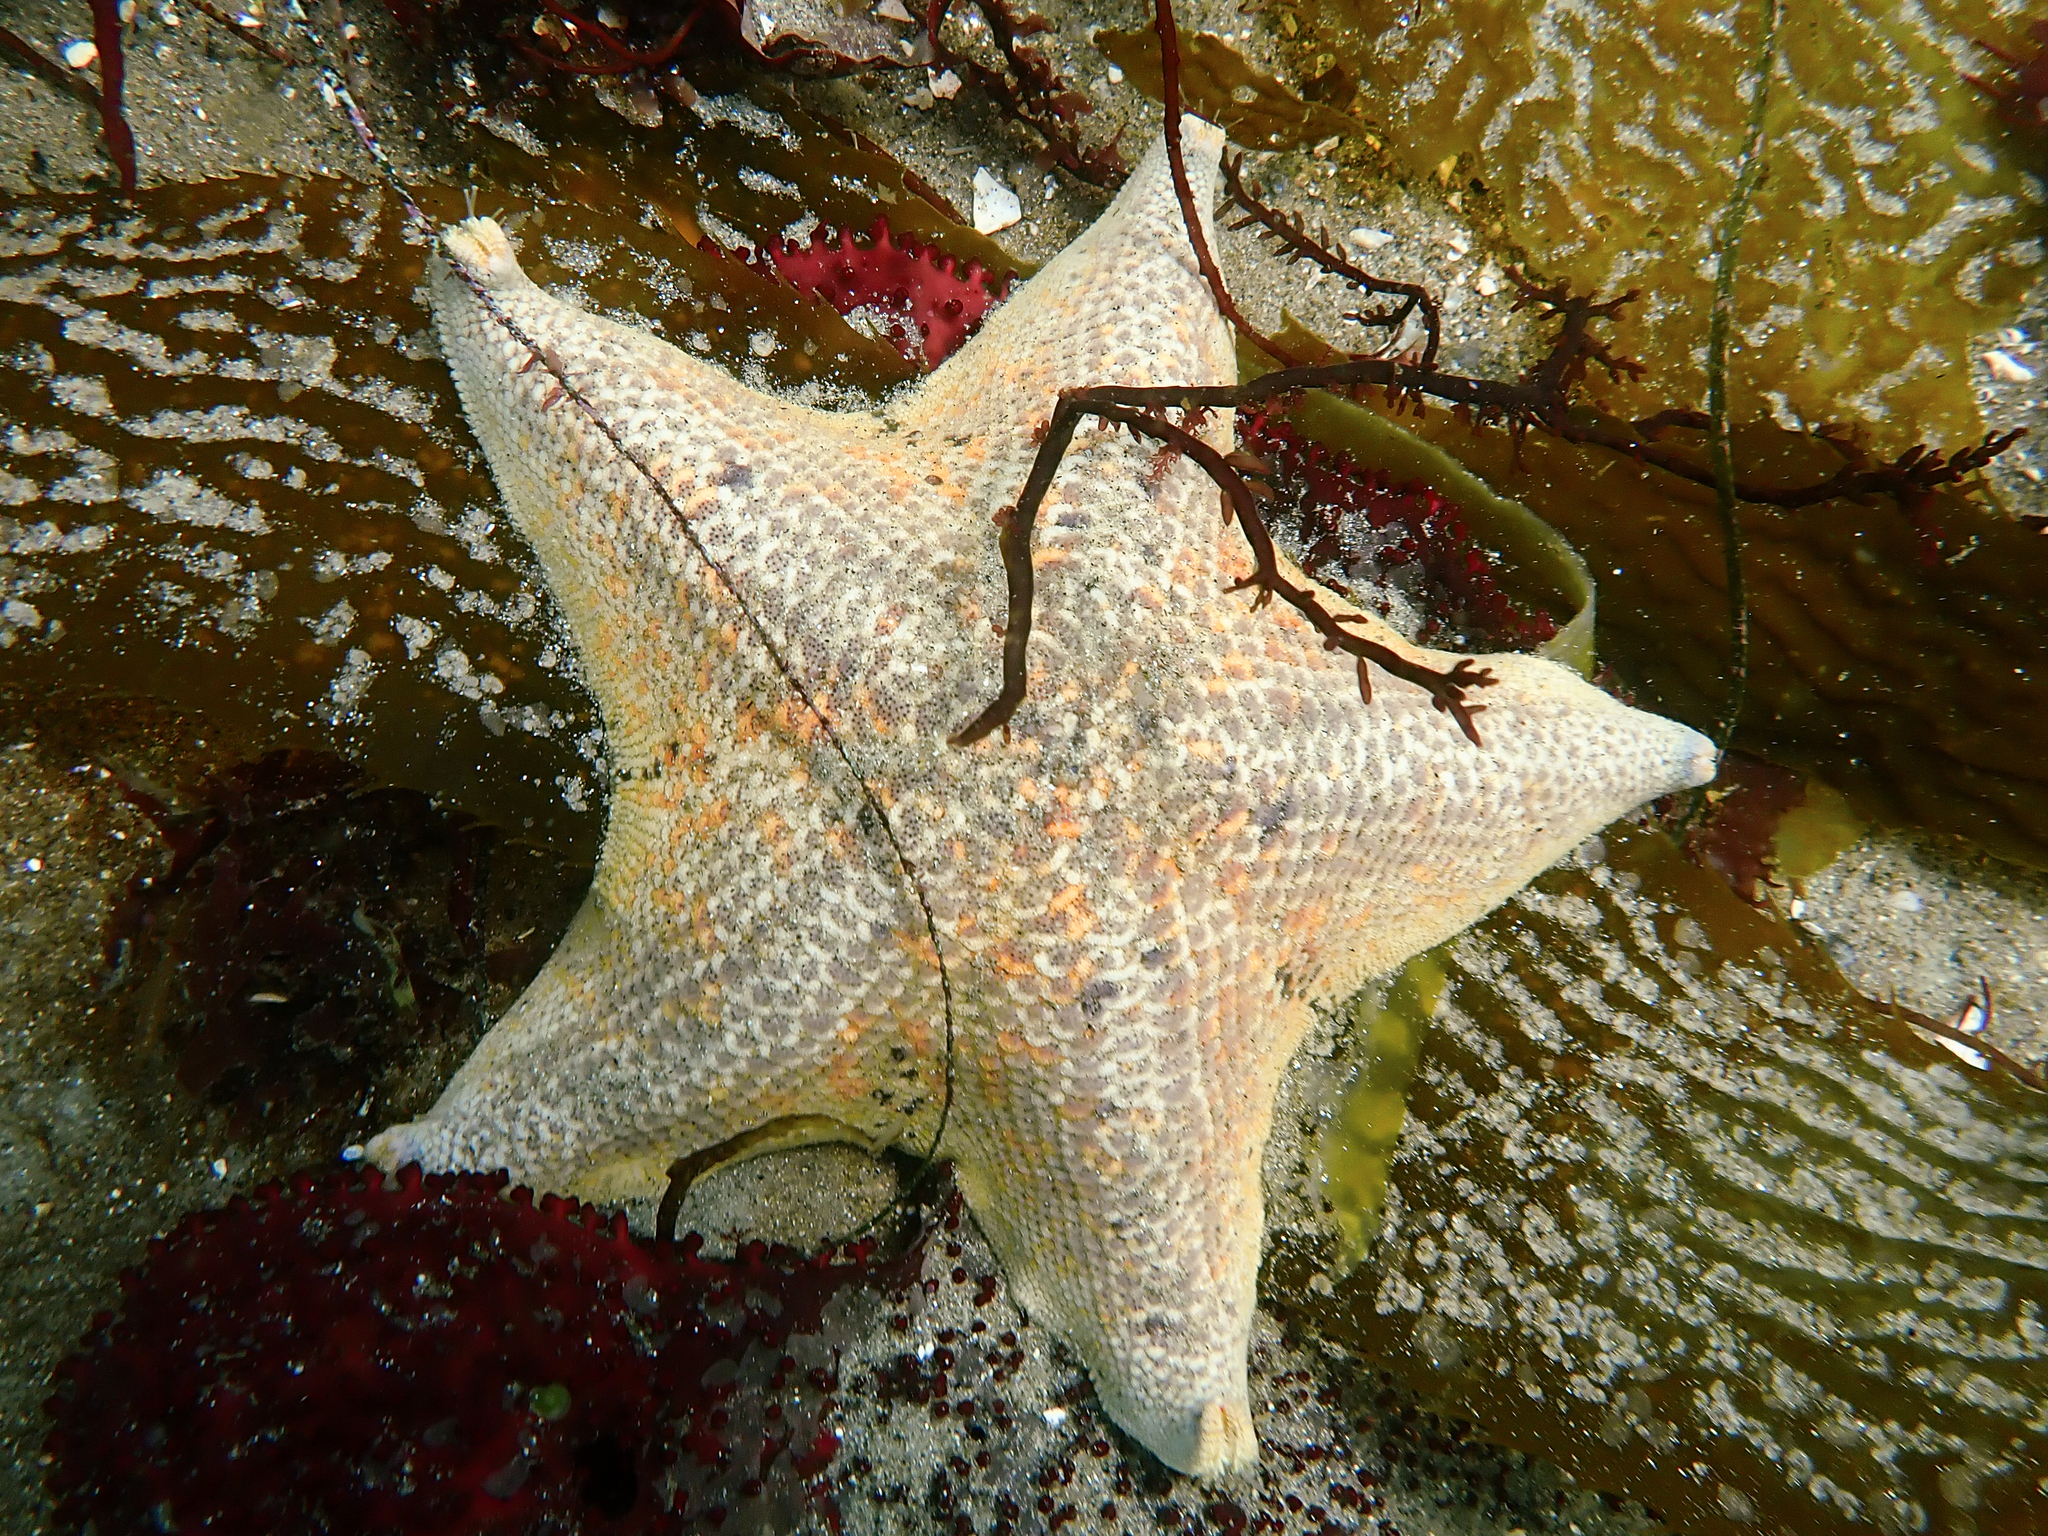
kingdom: Animalia
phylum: Echinodermata
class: Asteroidea
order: Valvatida
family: Asterinidae
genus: Patiria
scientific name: Patiria miniata
